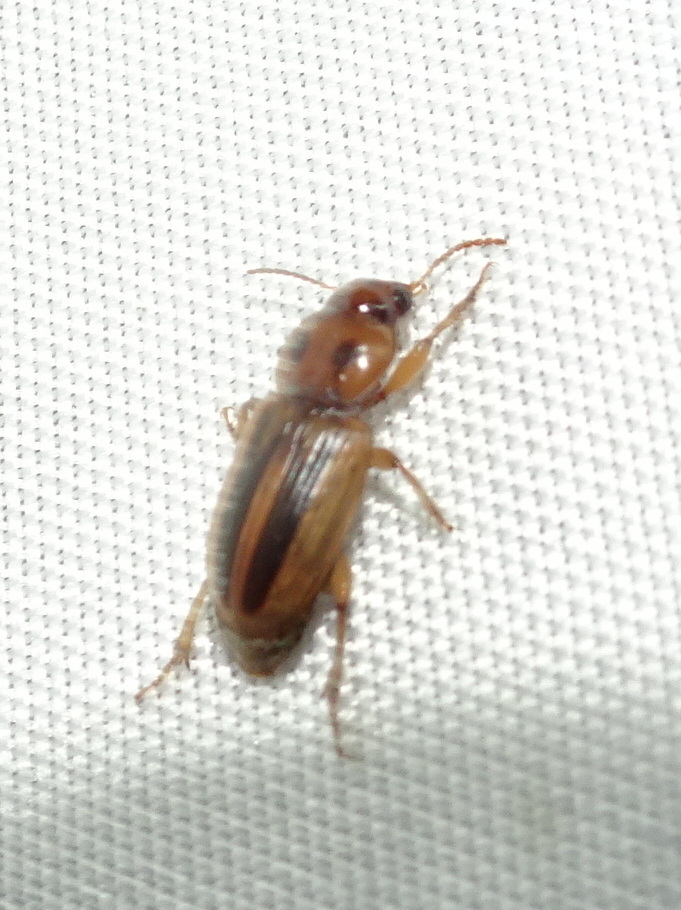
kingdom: Animalia
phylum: Arthropoda
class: Insecta
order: Coleoptera
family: Carabidae
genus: Stenolophus
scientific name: Stenolophus lineola
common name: Lined stenolophus
